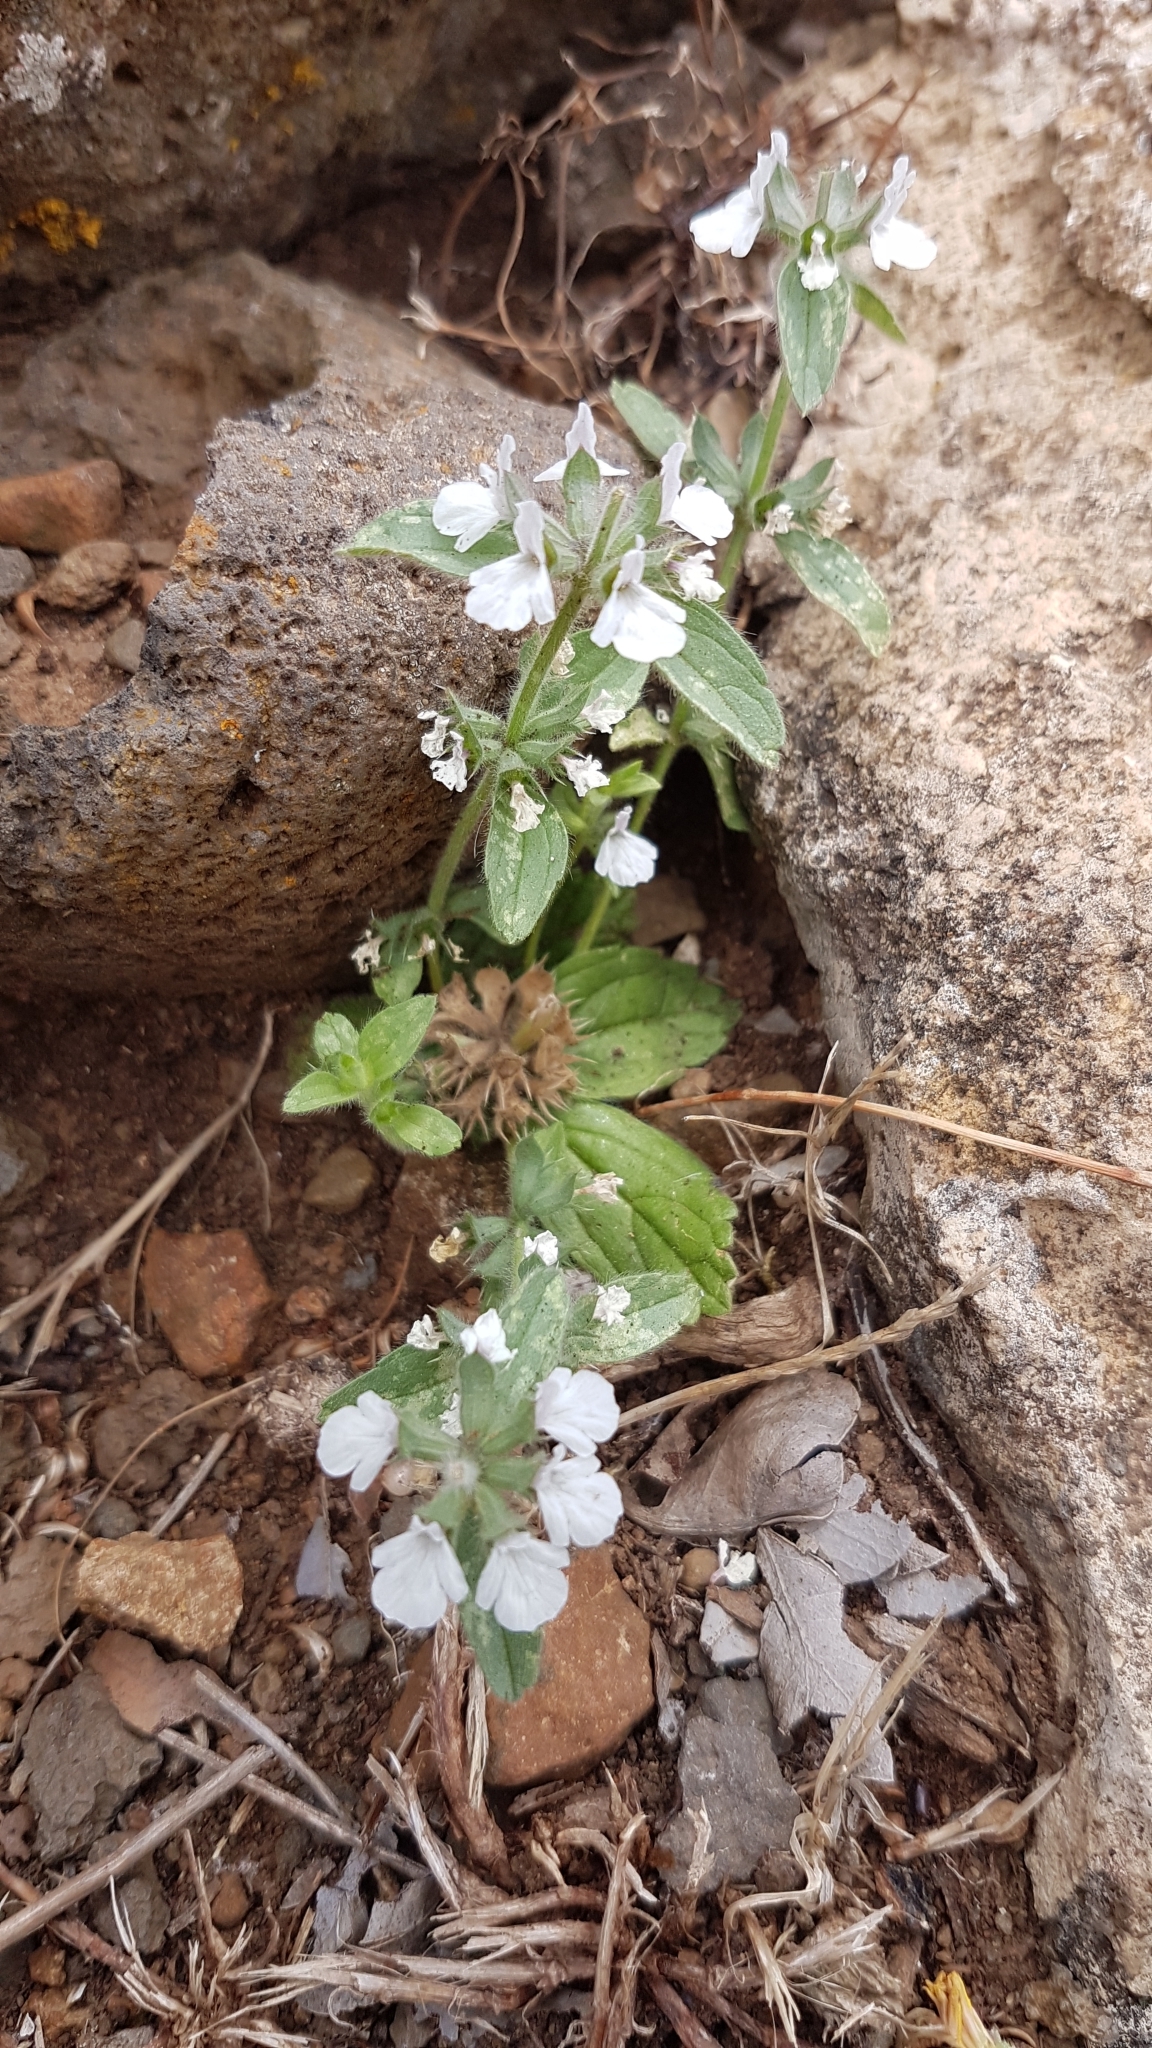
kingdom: Plantae
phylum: Tracheophyta
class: Magnoliopsida
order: Lamiales
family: Lamiaceae
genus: Sideritis
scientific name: Sideritis romana
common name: Simplebeak ironwort
